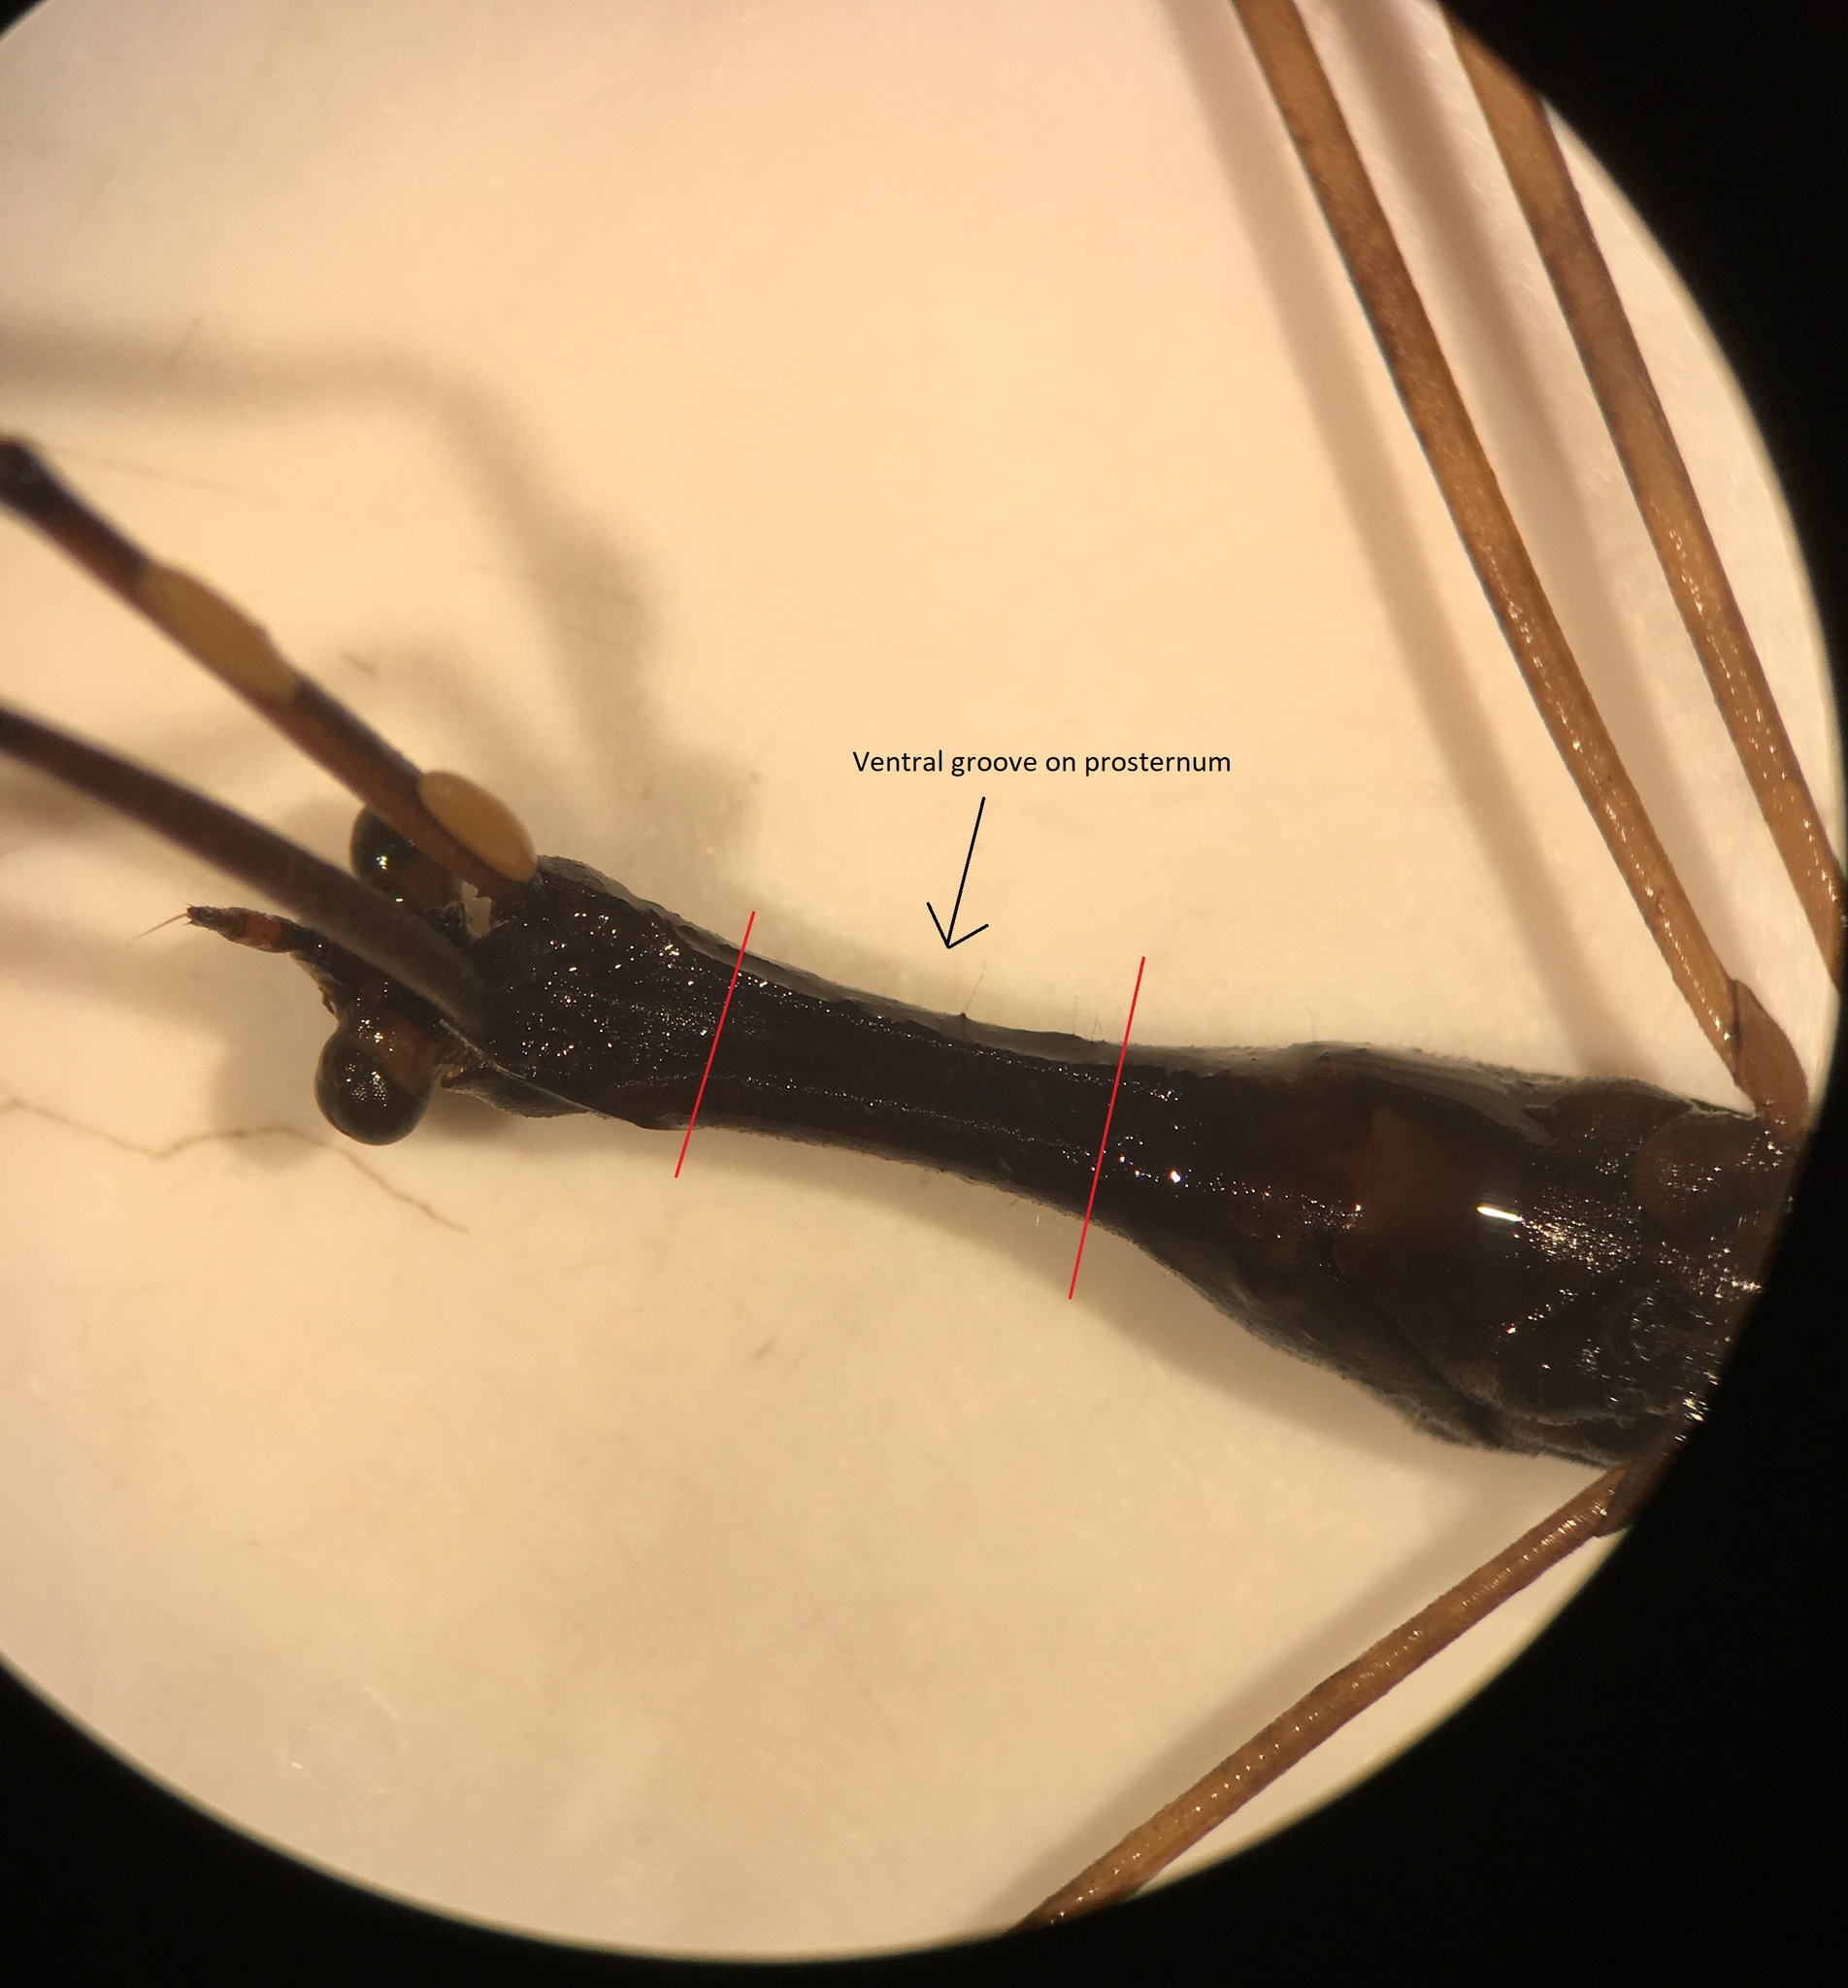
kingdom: Animalia
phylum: Arthropoda
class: Insecta
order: Hemiptera
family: Nepidae
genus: Ranatra
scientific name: Ranatra buenoi
